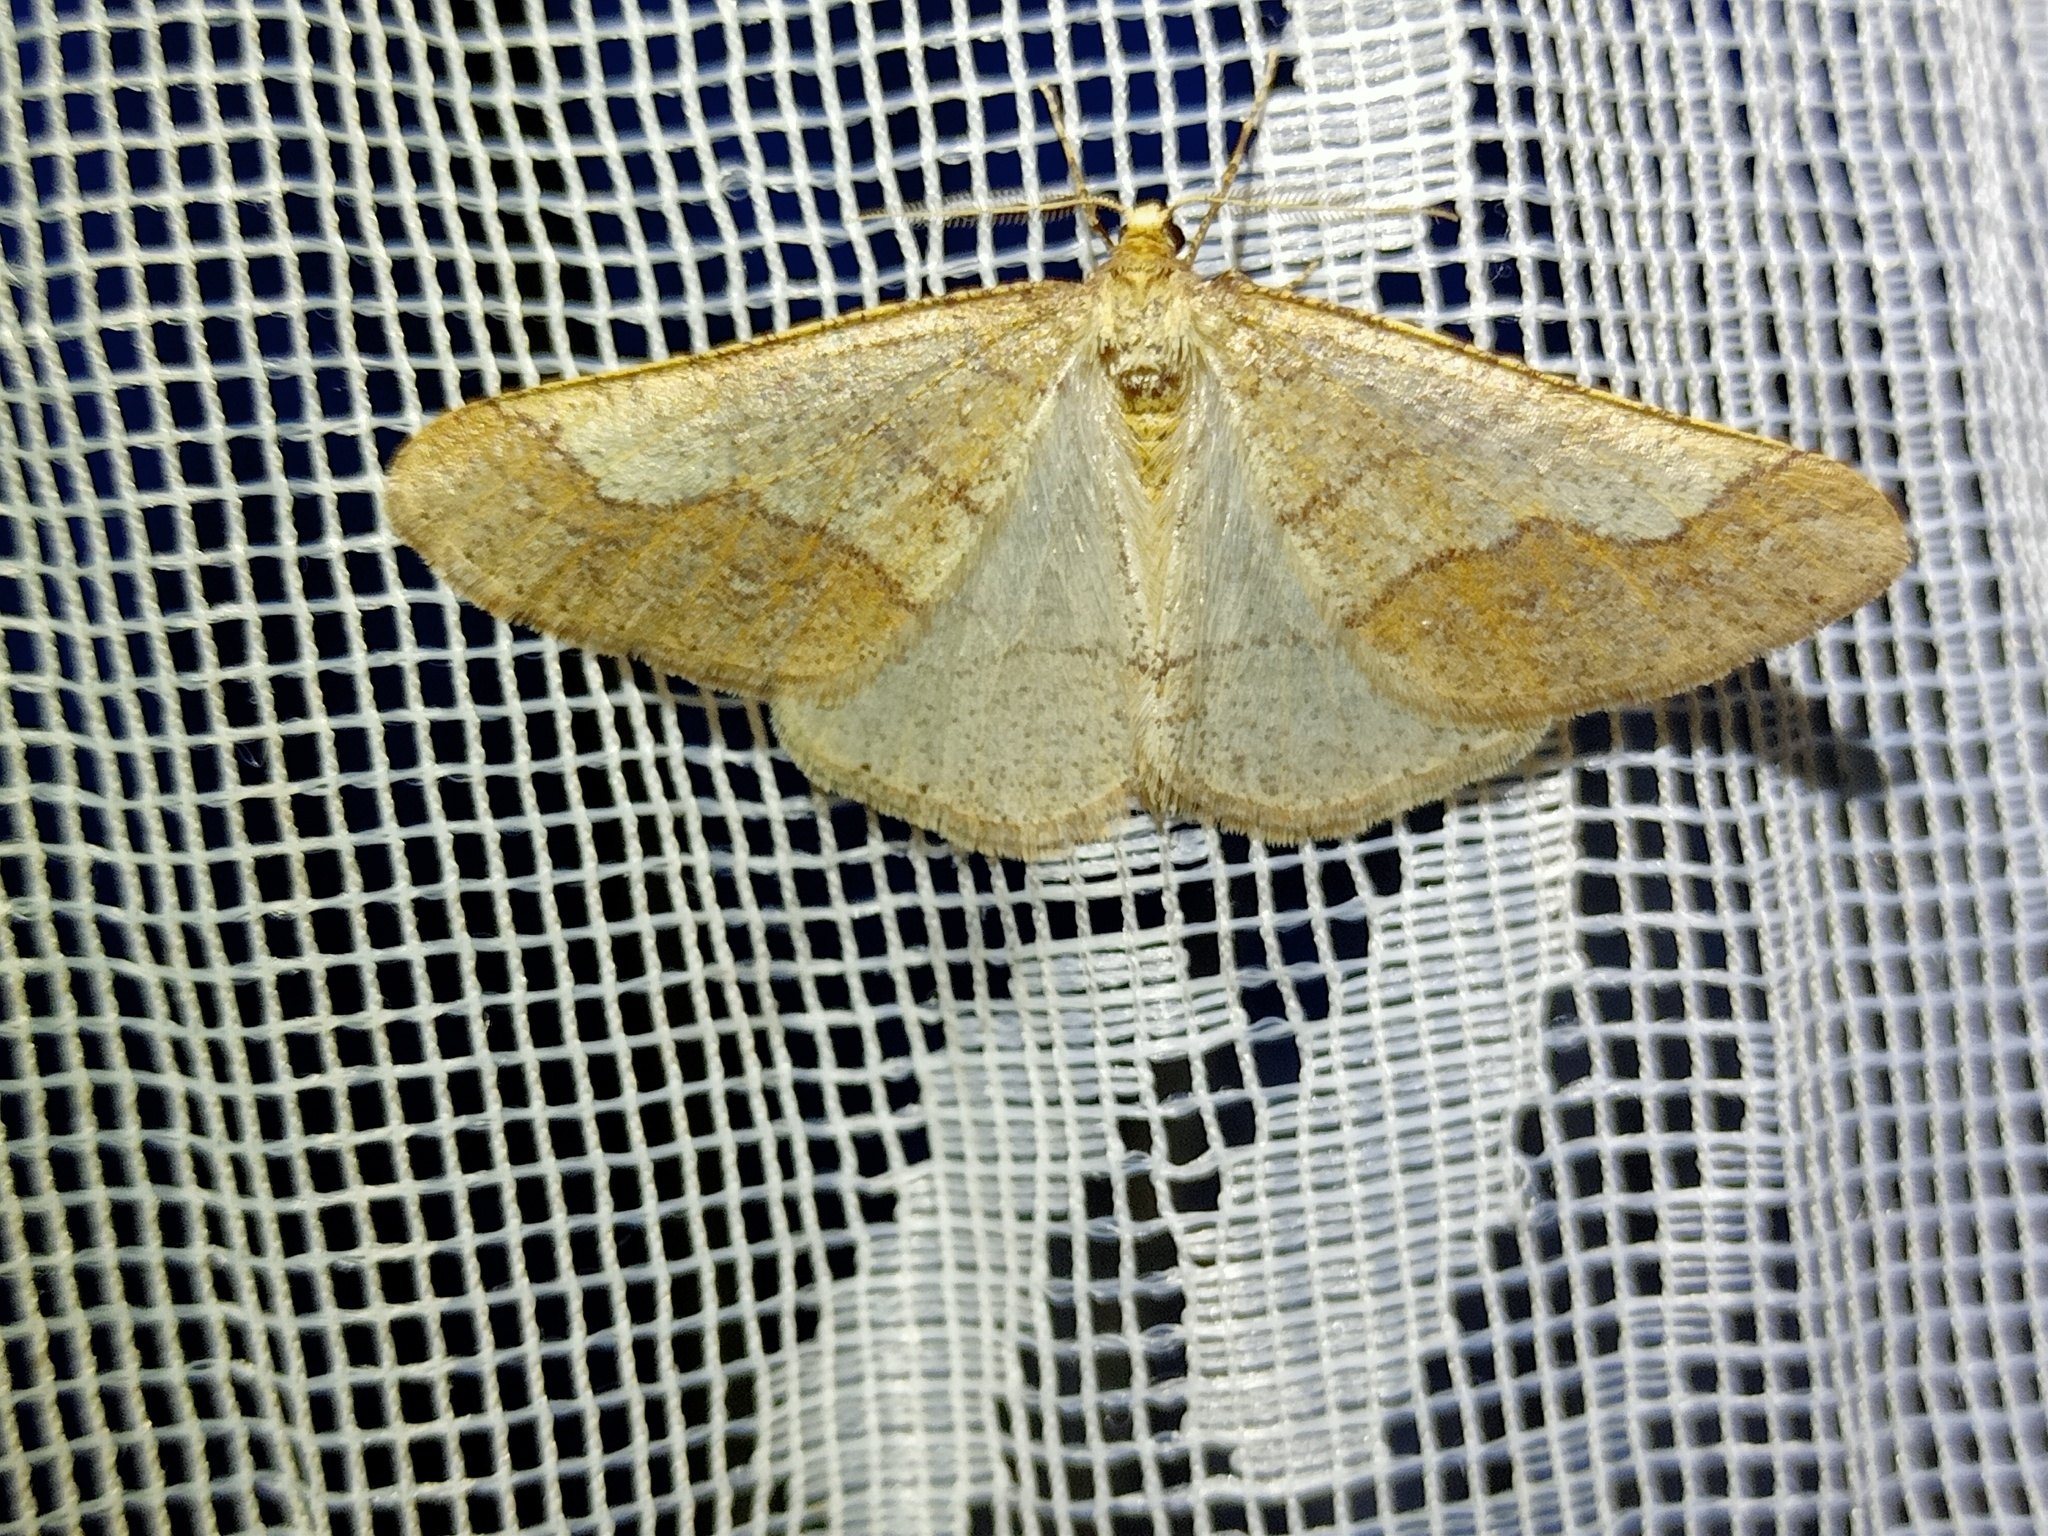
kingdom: Animalia
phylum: Arthropoda
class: Insecta
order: Lepidoptera
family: Geometridae
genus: Agriopis
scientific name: Agriopis marginaria
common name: Dotted border
